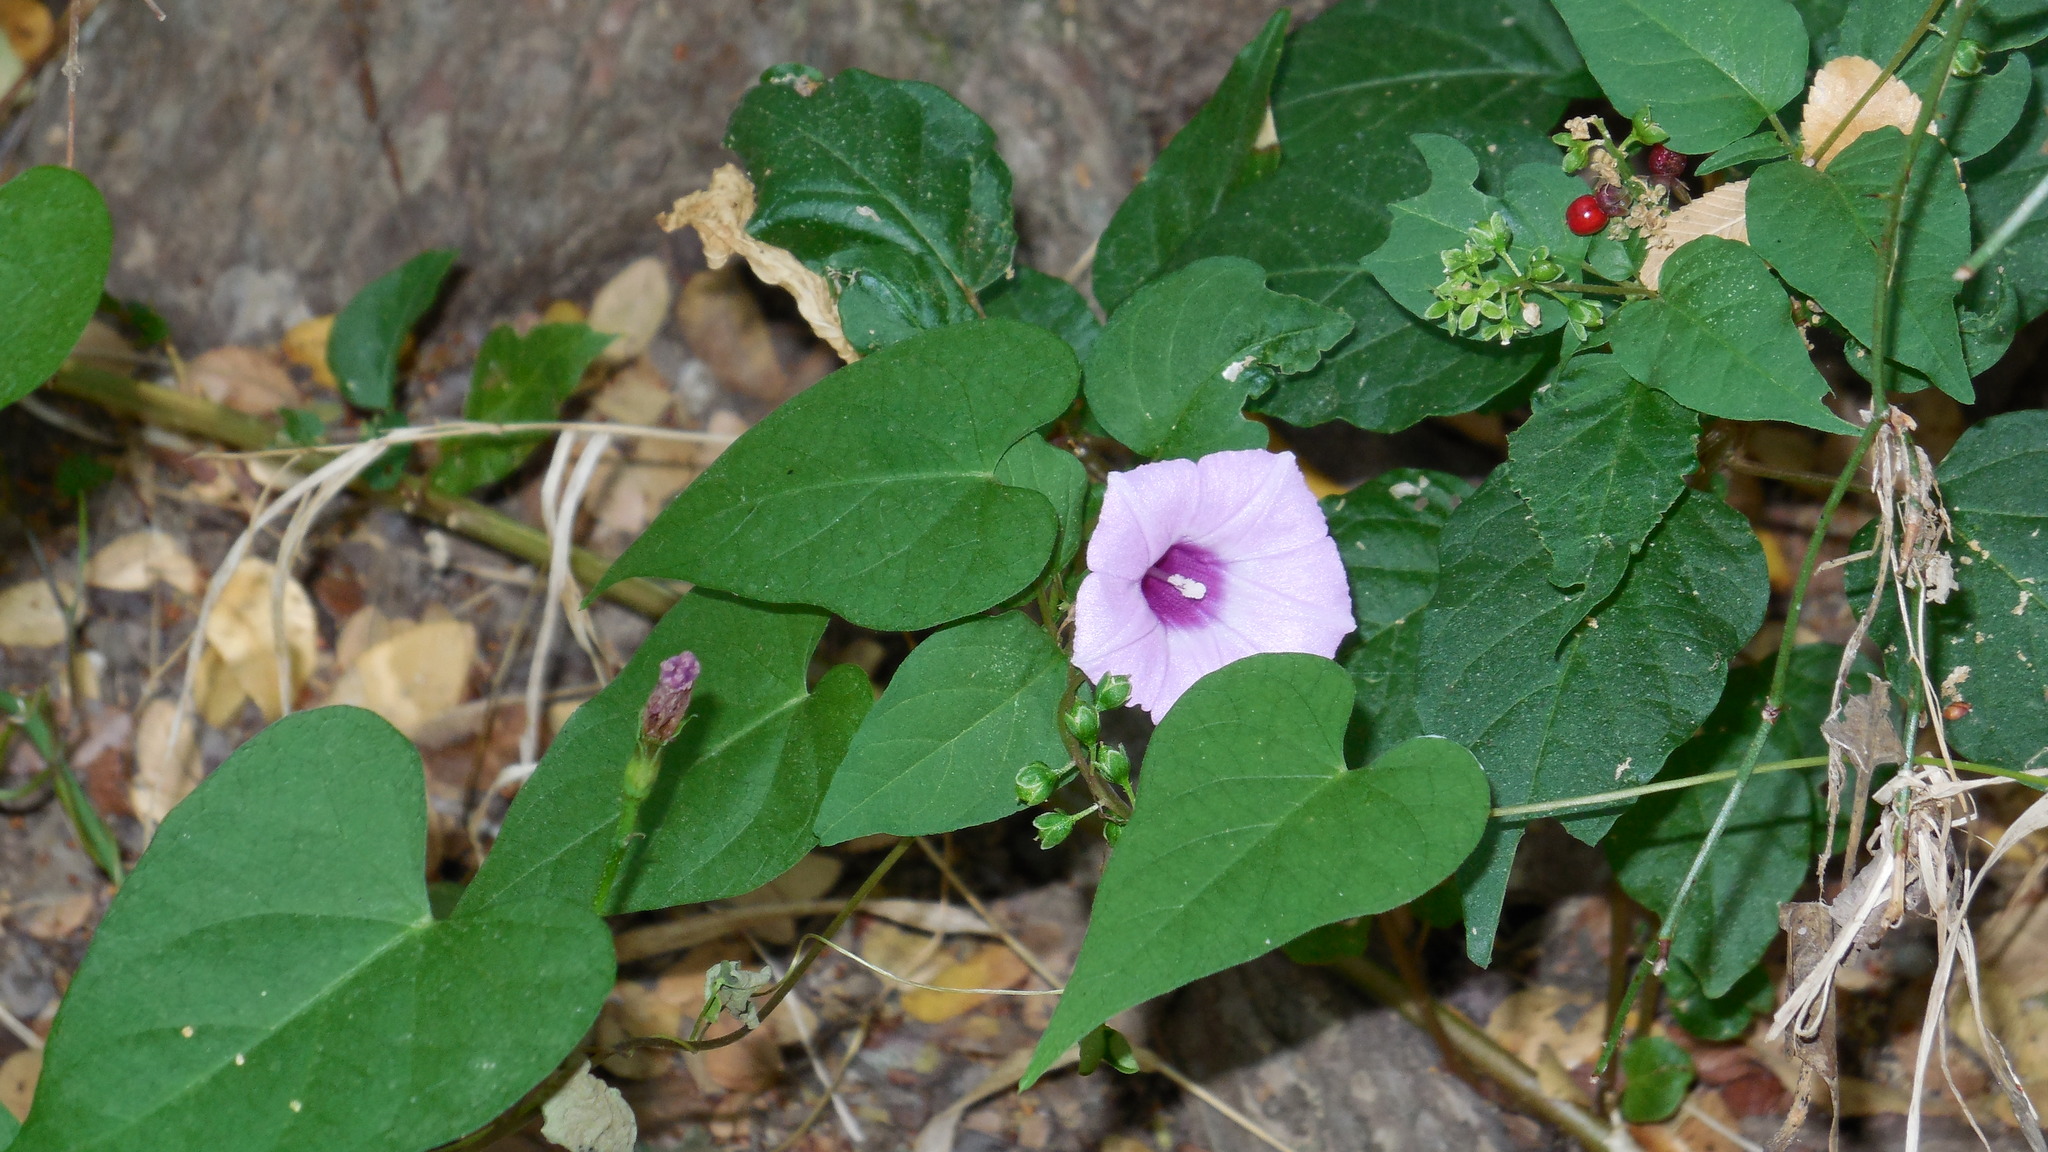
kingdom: Plantae
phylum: Tracheophyta
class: Magnoliopsida
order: Solanales
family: Convolvulaceae
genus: Ipomoea
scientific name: Ipomoea cordatotriloba
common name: Cotton morning glory
